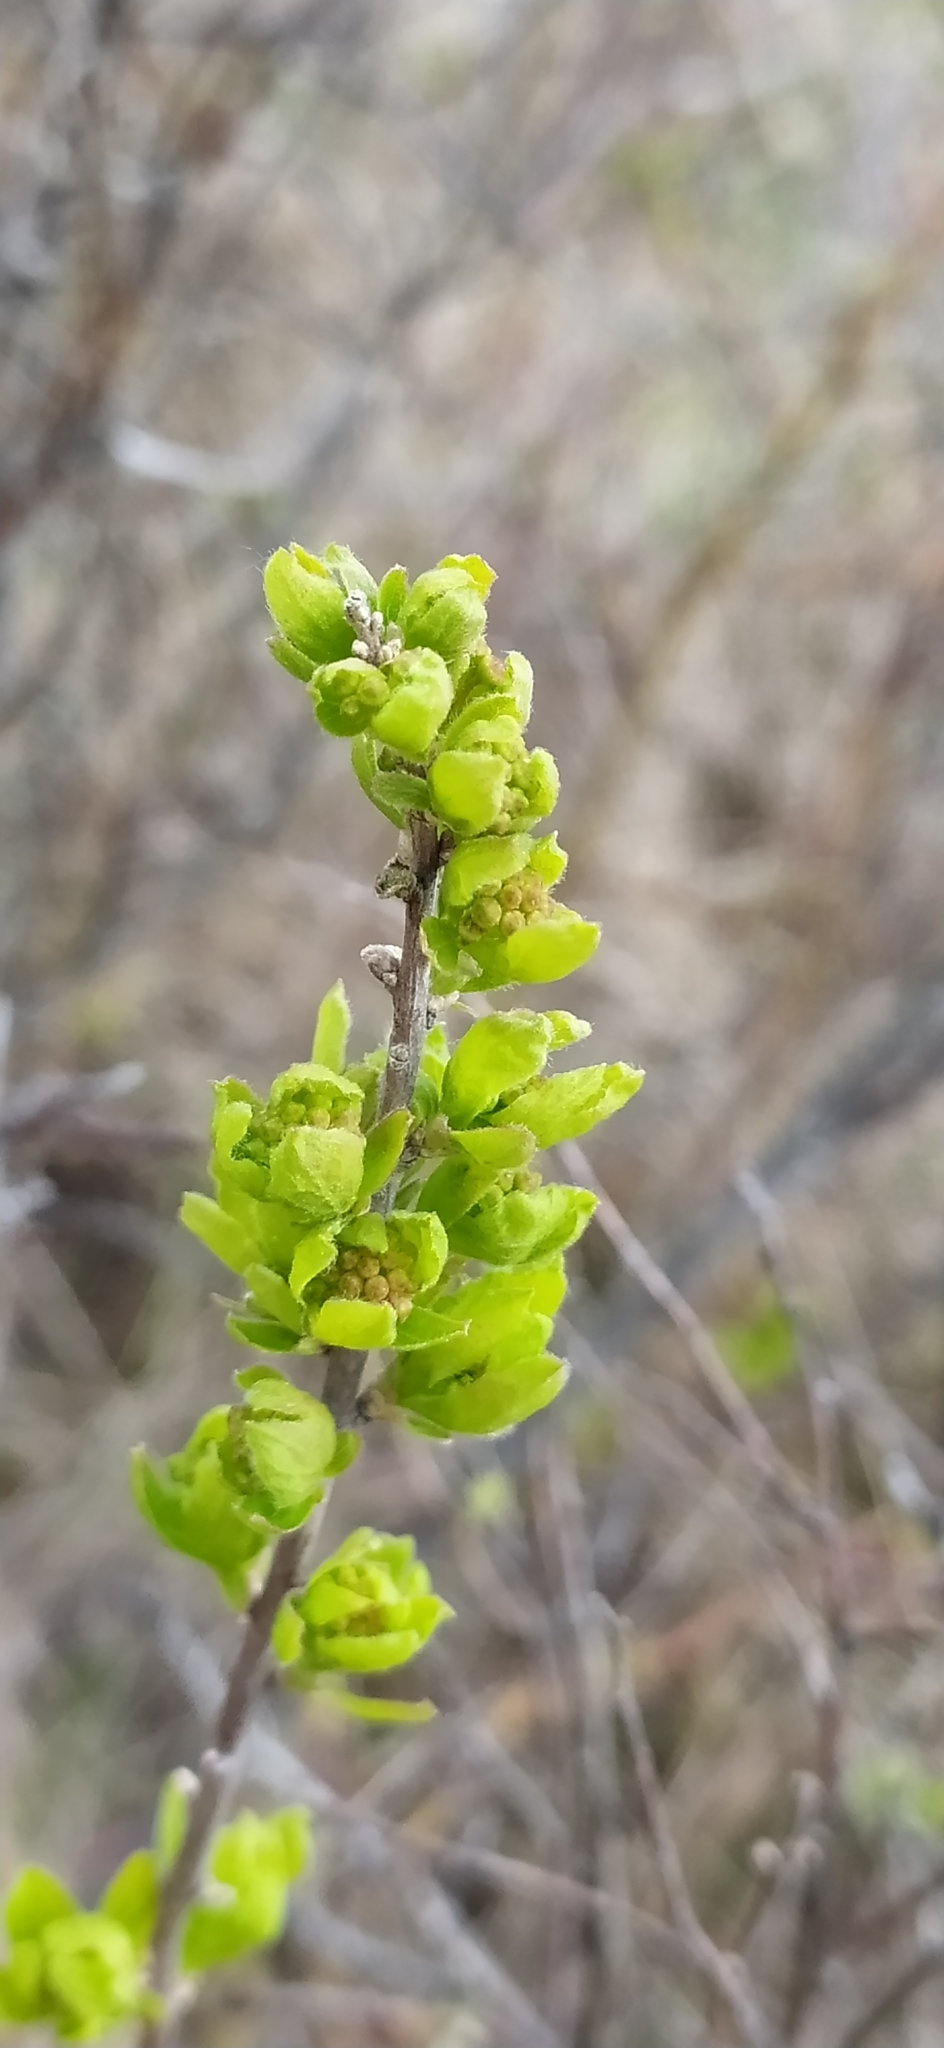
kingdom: Plantae
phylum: Tracheophyta
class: Magnoliopsida
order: Rosales
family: Rosaceae
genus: Spiraea
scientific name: Spiraea media
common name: Russian spiraea
